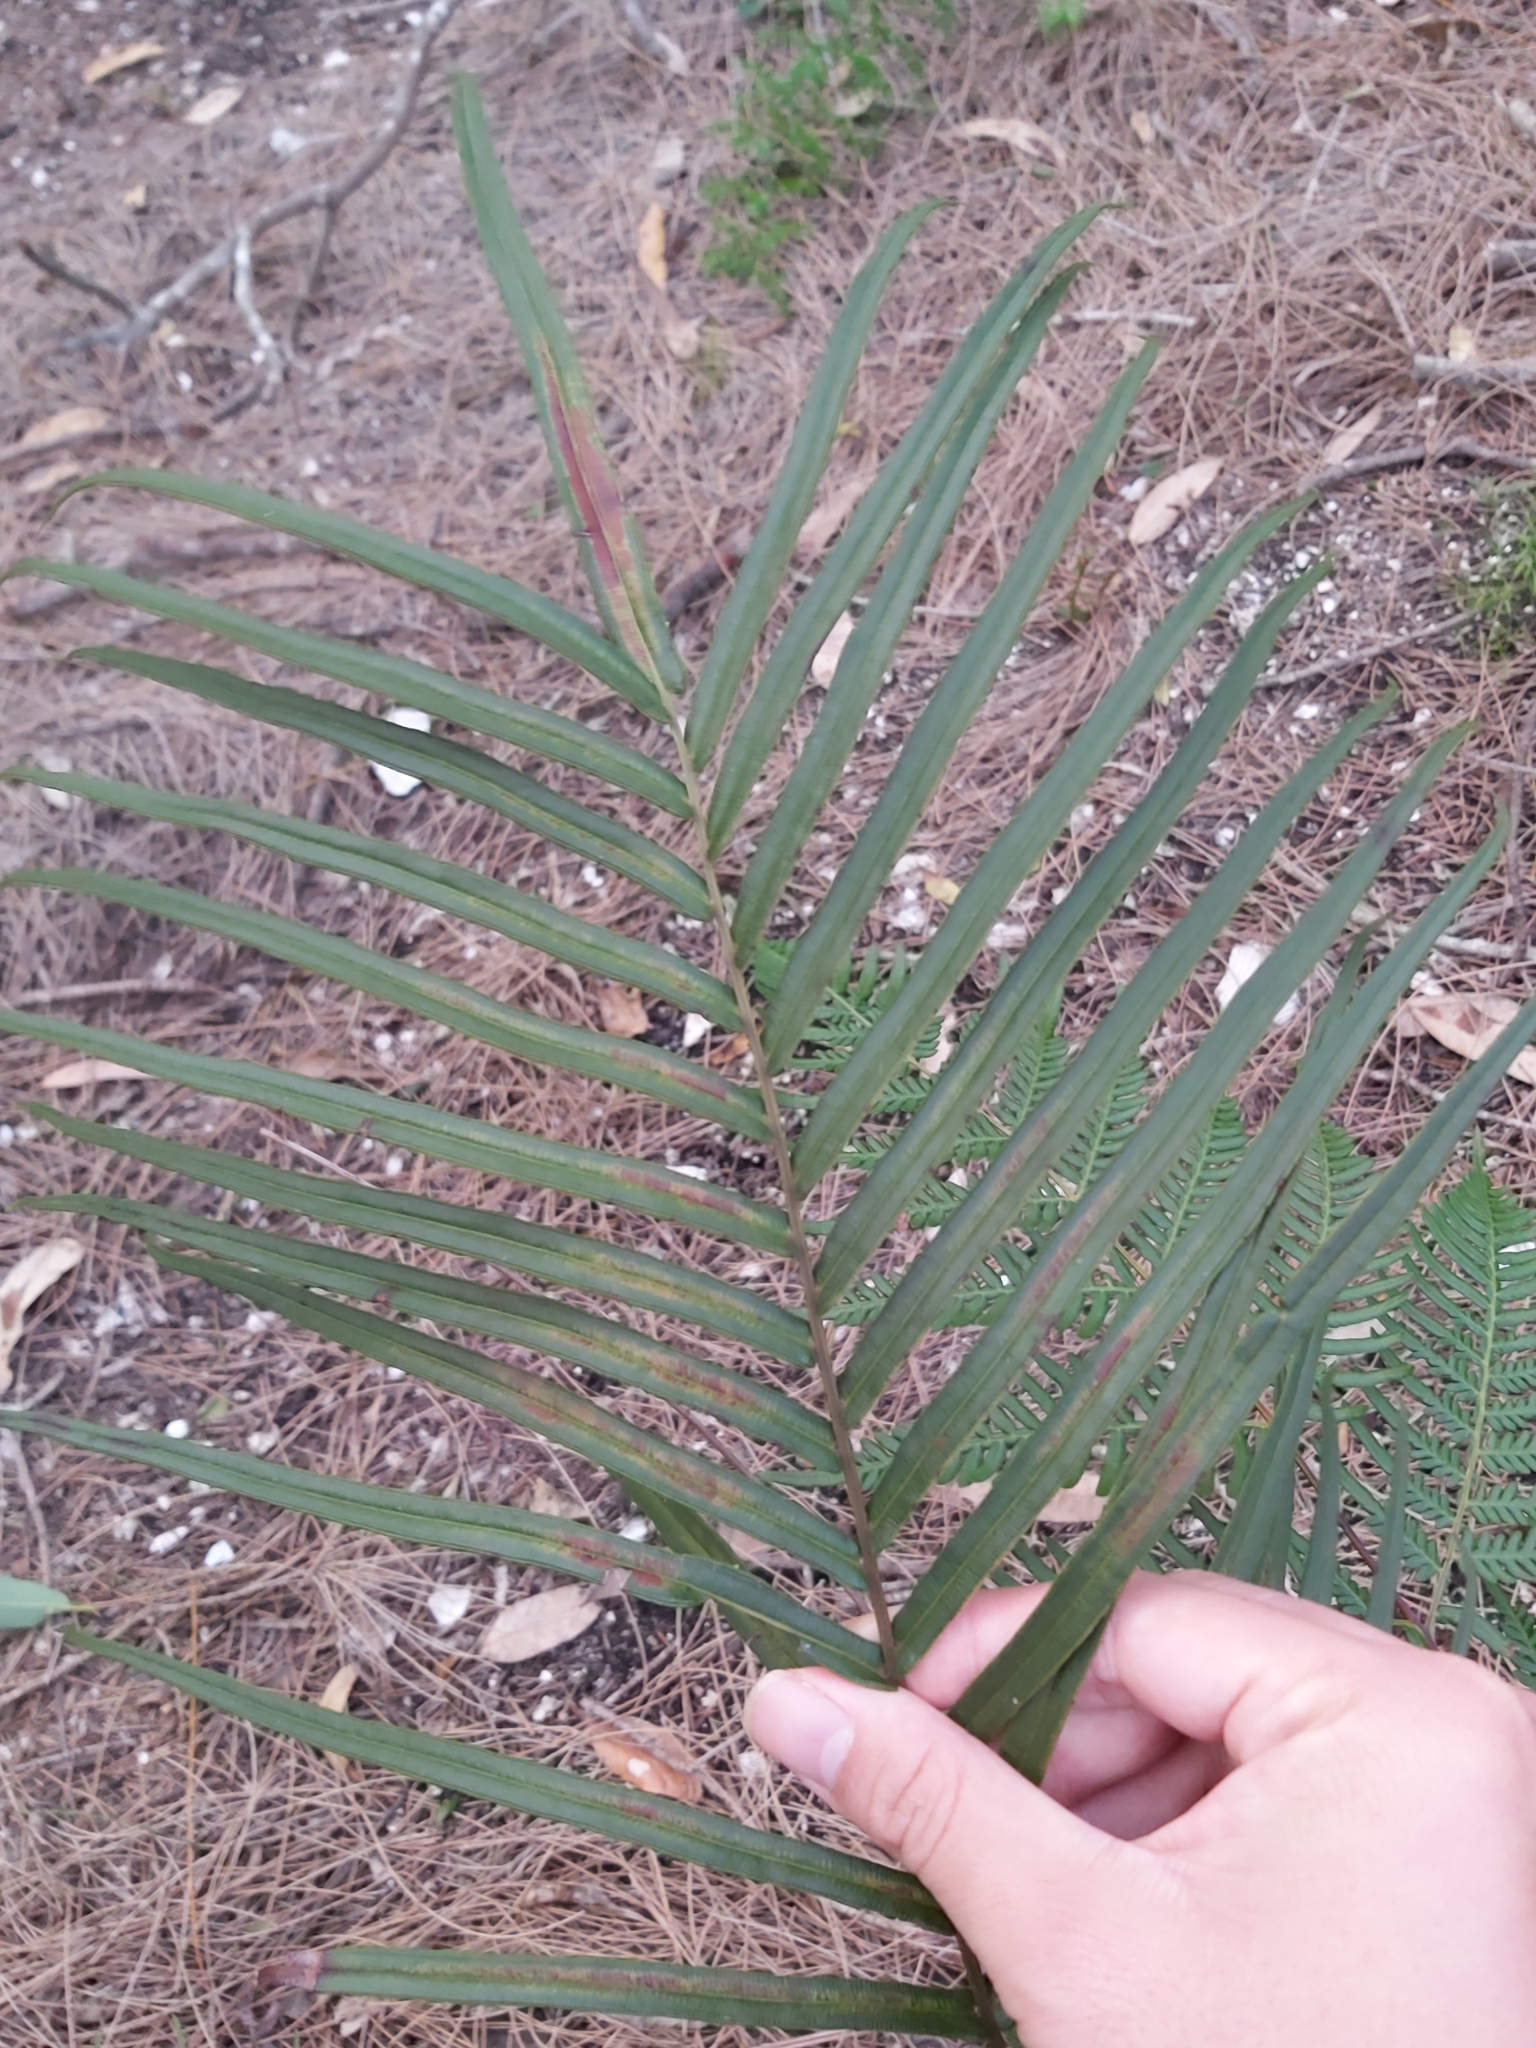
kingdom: Plantae
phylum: Tracheophyta
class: Polypodiopsida
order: Polypodiales
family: Pteridaceae
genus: Pteris
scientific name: Pteris vittata
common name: Ladder brake
